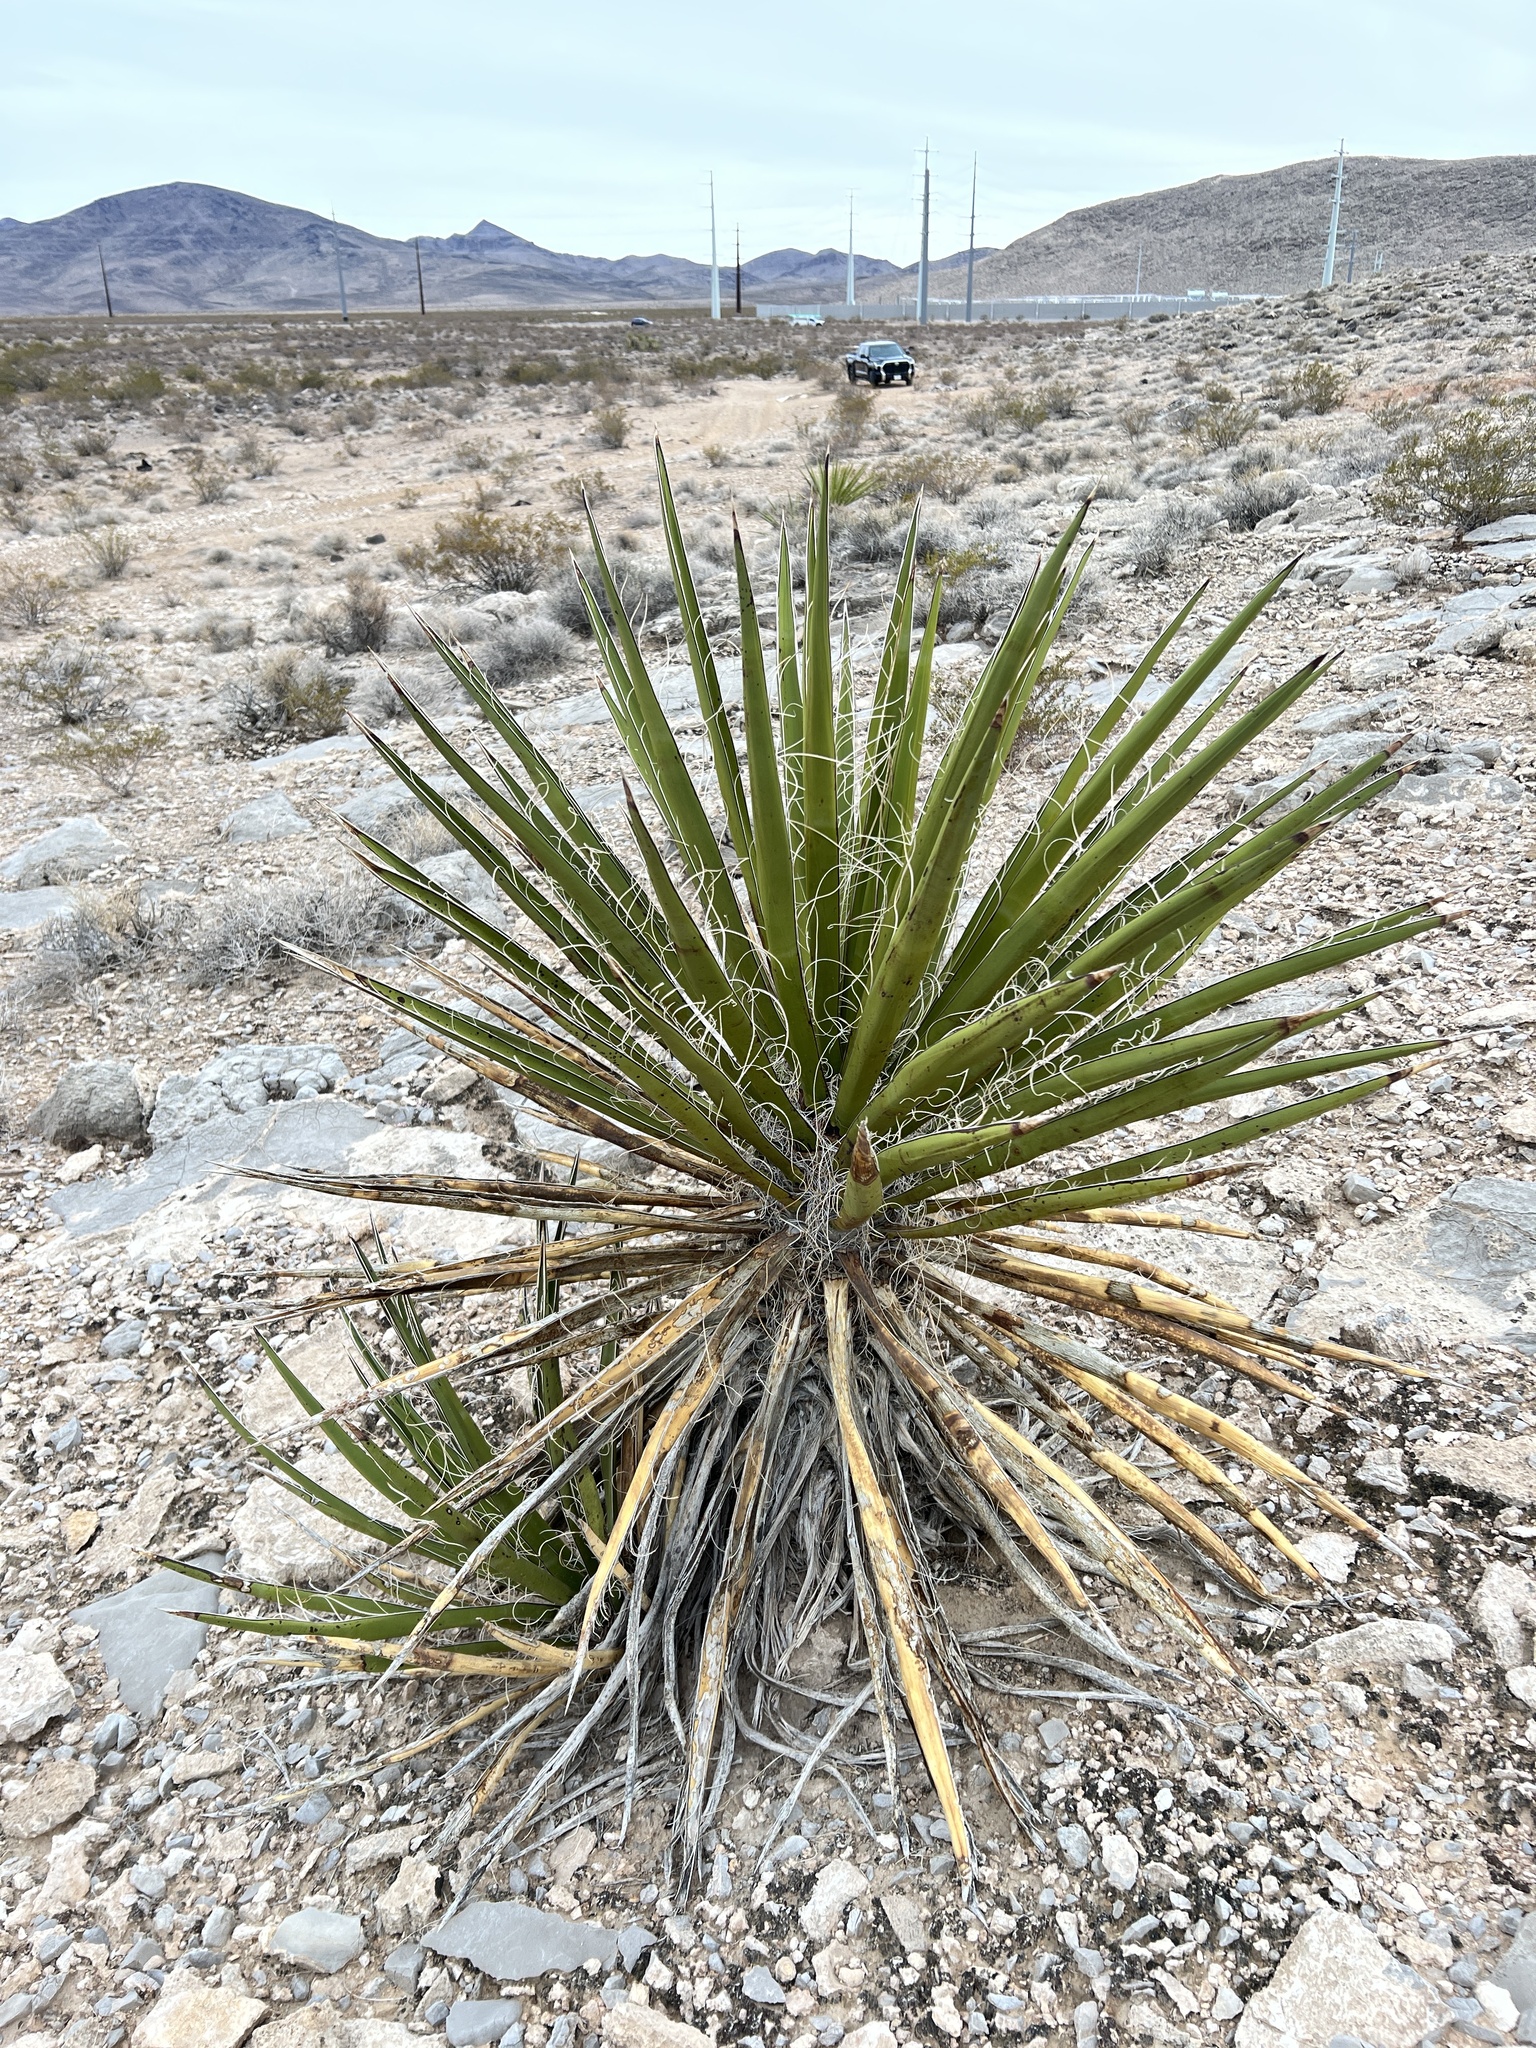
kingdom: Plantae
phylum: Tracheophyta
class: Liliopsida
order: Asparagales
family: Asparagaceae
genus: Yucca
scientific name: Yucca schidigera
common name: Mojave yucca
